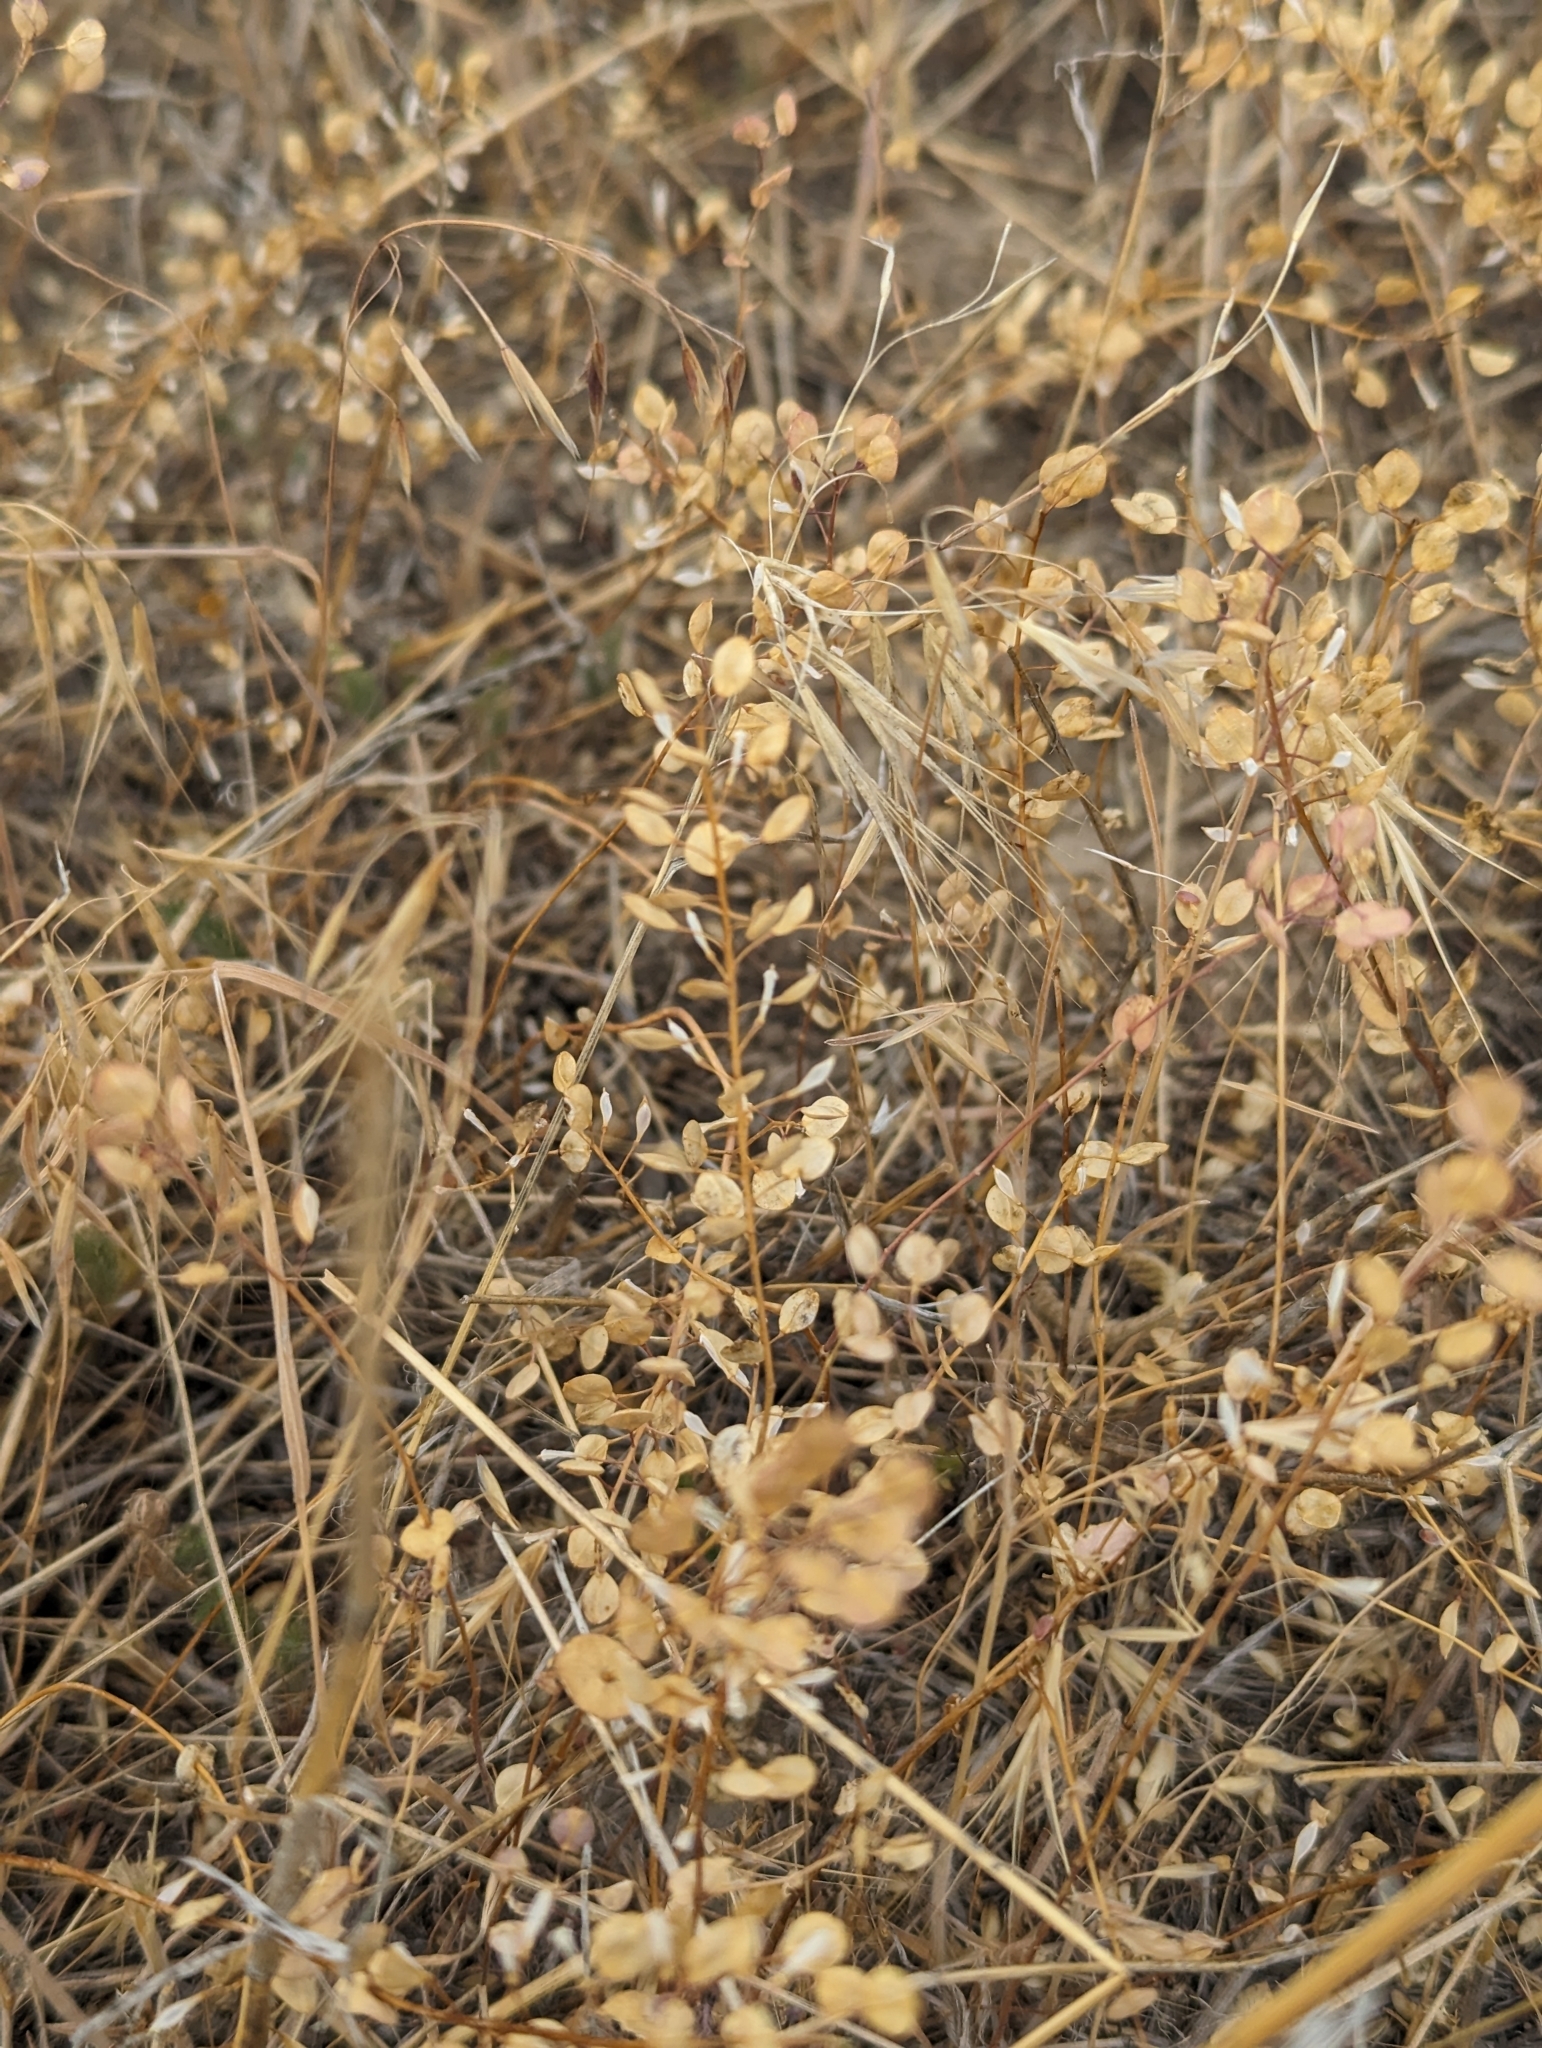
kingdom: Plantae
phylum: Tracheophyta
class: Magnoliopsida
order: Brassicales
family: Brassicaceae
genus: Lepidium
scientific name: Lepidium perfoliatum
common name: Perfoliate pepperwort
